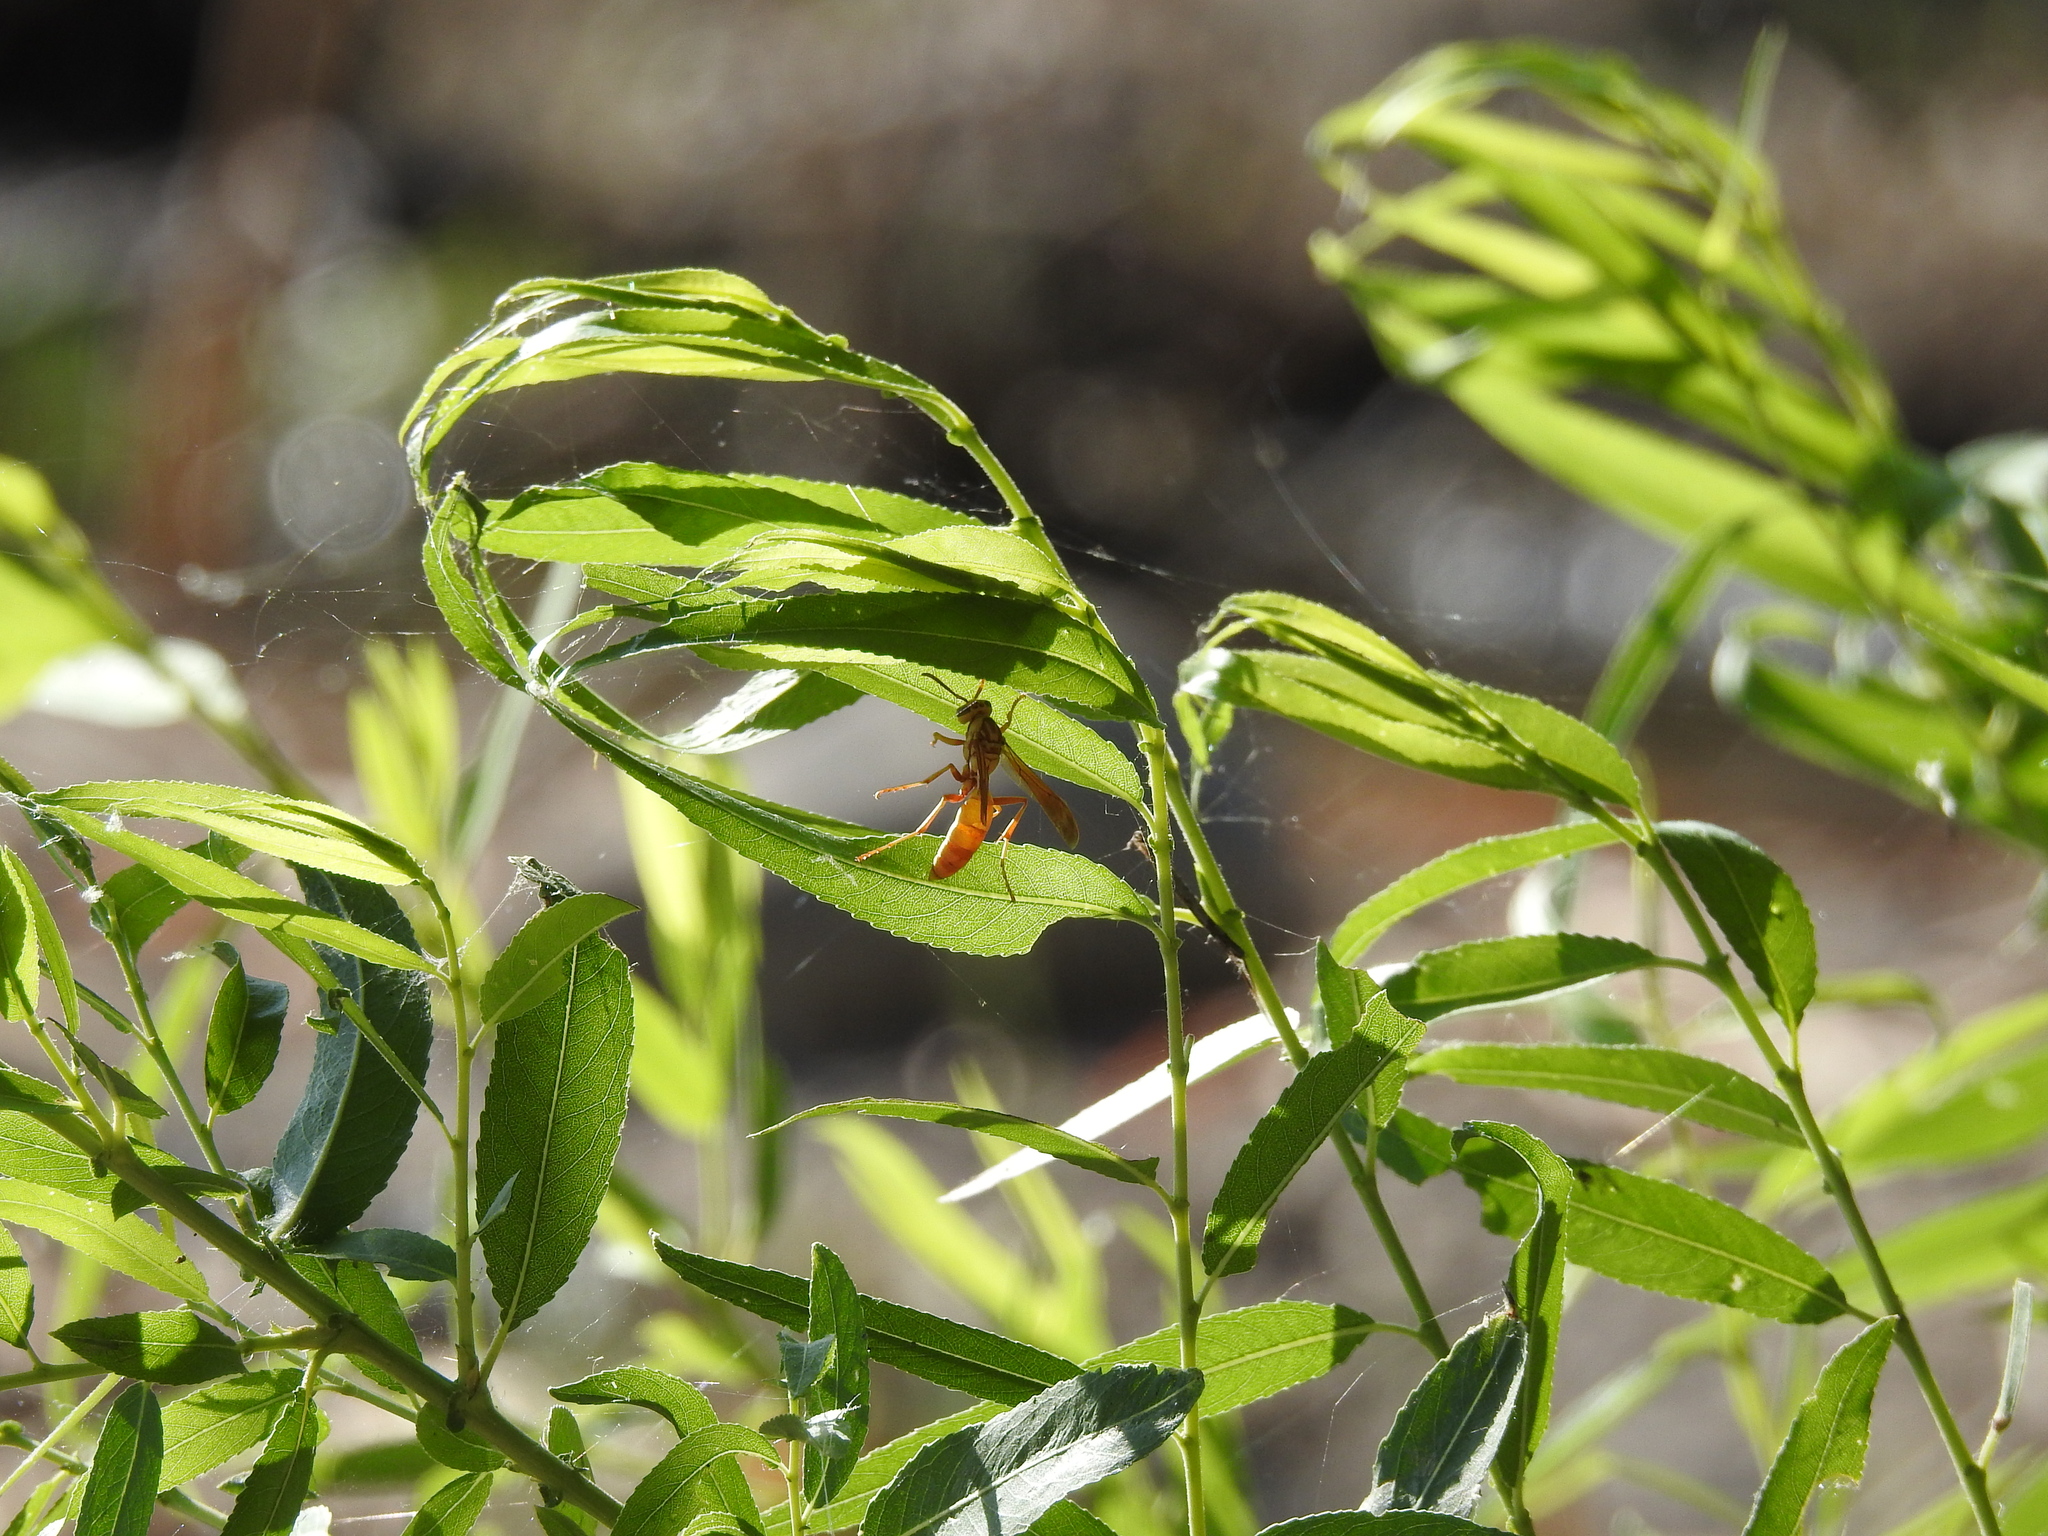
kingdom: Animalia
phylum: Arthropoda
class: Insecta
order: Hymenoptera
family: Vespidae
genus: Fuscopolistes
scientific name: Fuscopolistes
